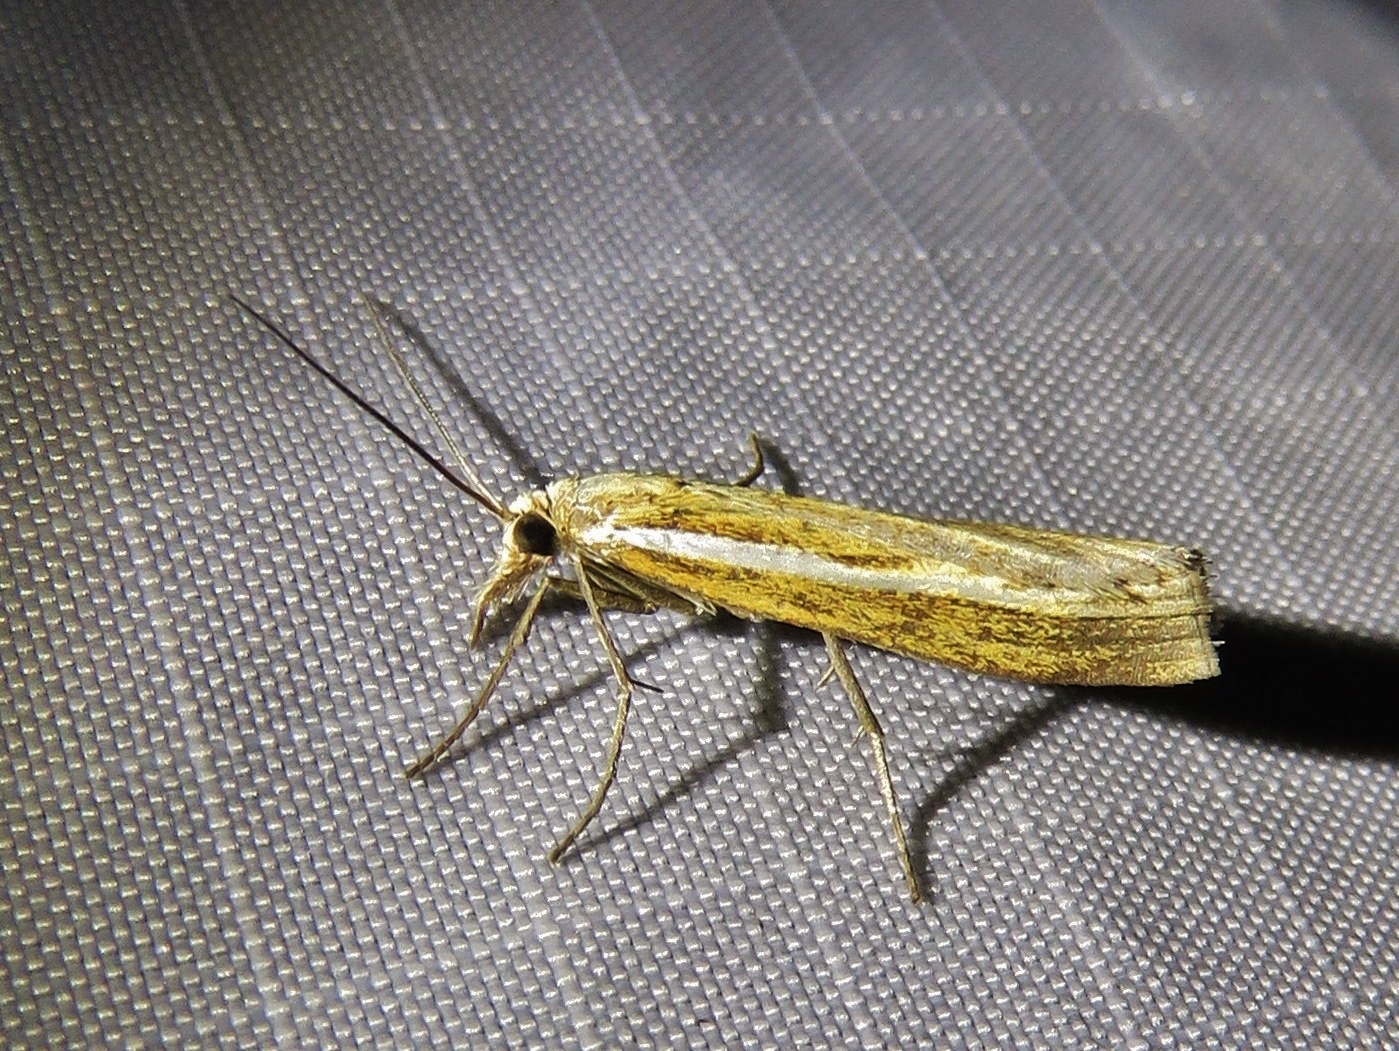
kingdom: Animalia
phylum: Arthropoda
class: Insecta
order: Lepidoptera
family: Crambidae
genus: Agriphila
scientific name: Agriphila tristellus
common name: Common grass-veneer
